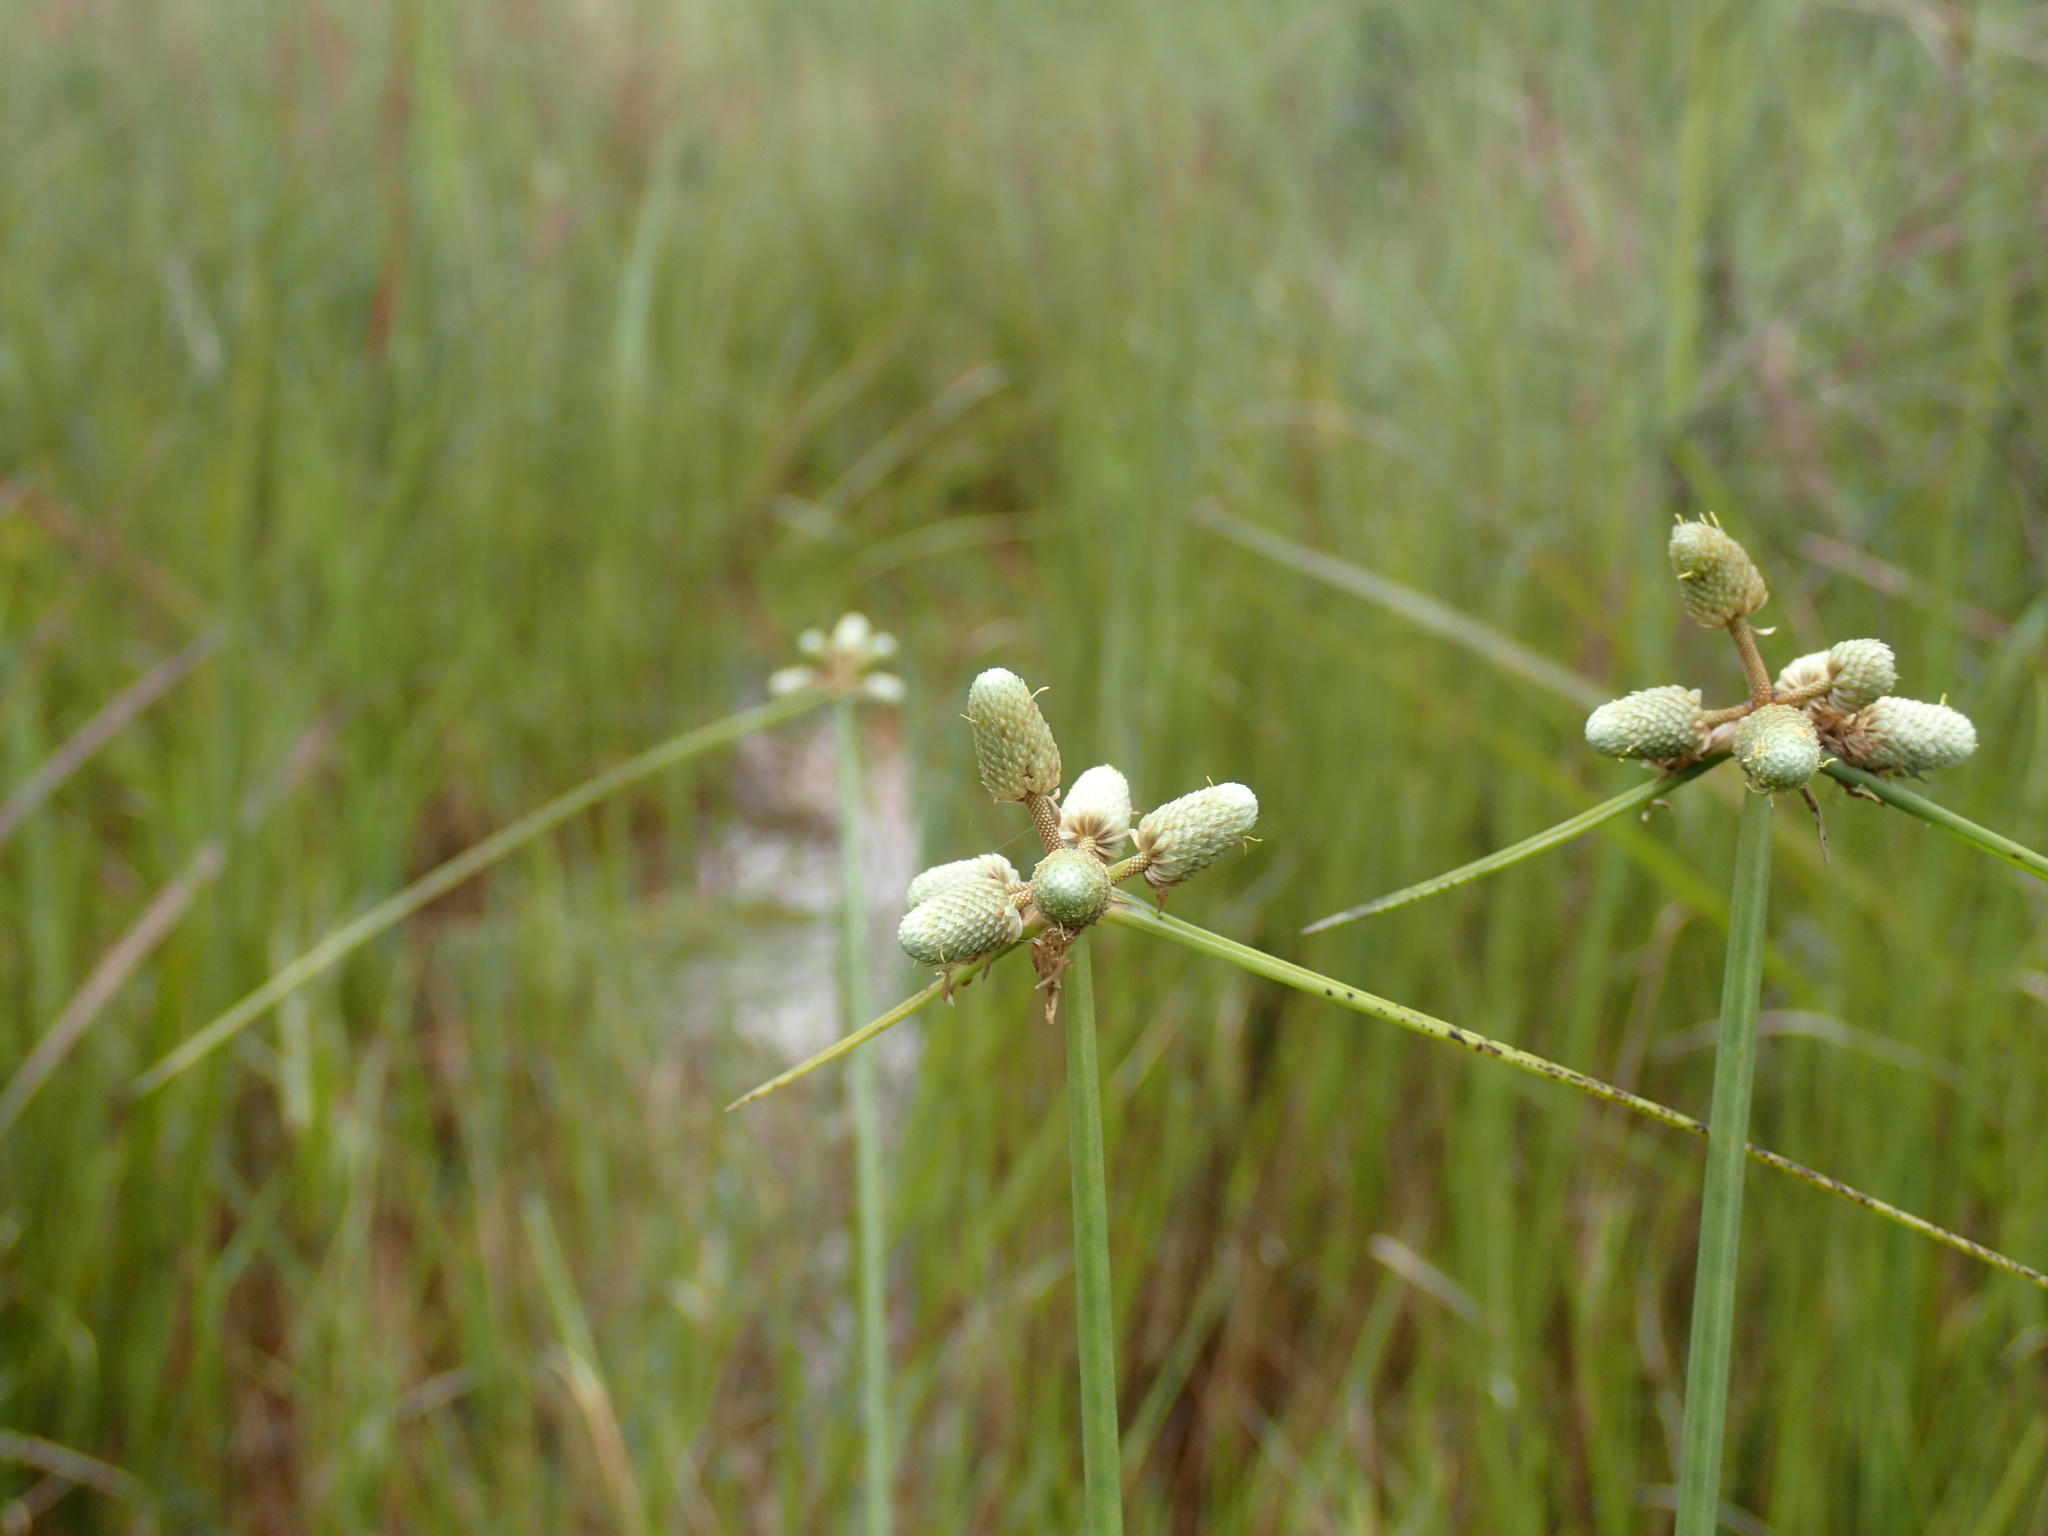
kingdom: Plantae
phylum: Tracheophyta
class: Liliopsida
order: Poales
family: Cyperaceae
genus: Cyperus
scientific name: Cyperus albescens
